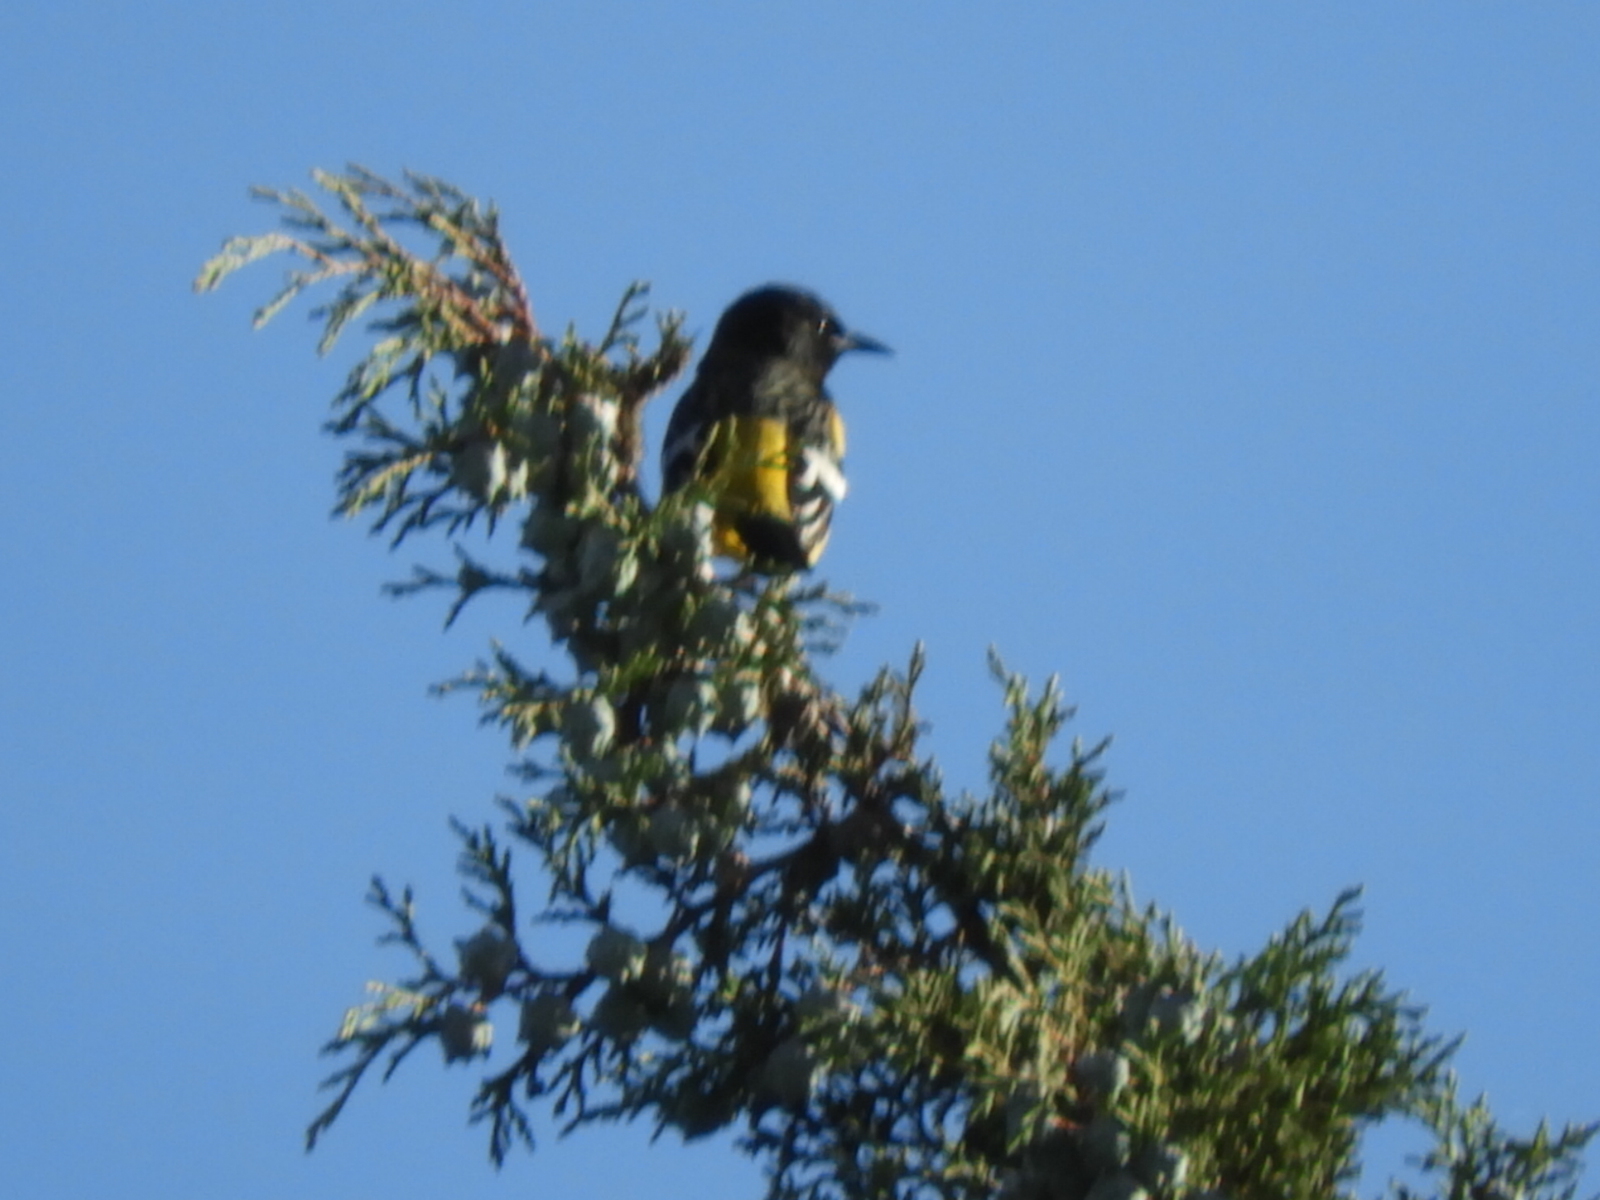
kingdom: Animalia
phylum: Chordata
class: Aves
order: Passeriformes
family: Icteridae
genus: Icterus
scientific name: Icterus parisorum
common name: Scott's oriole
